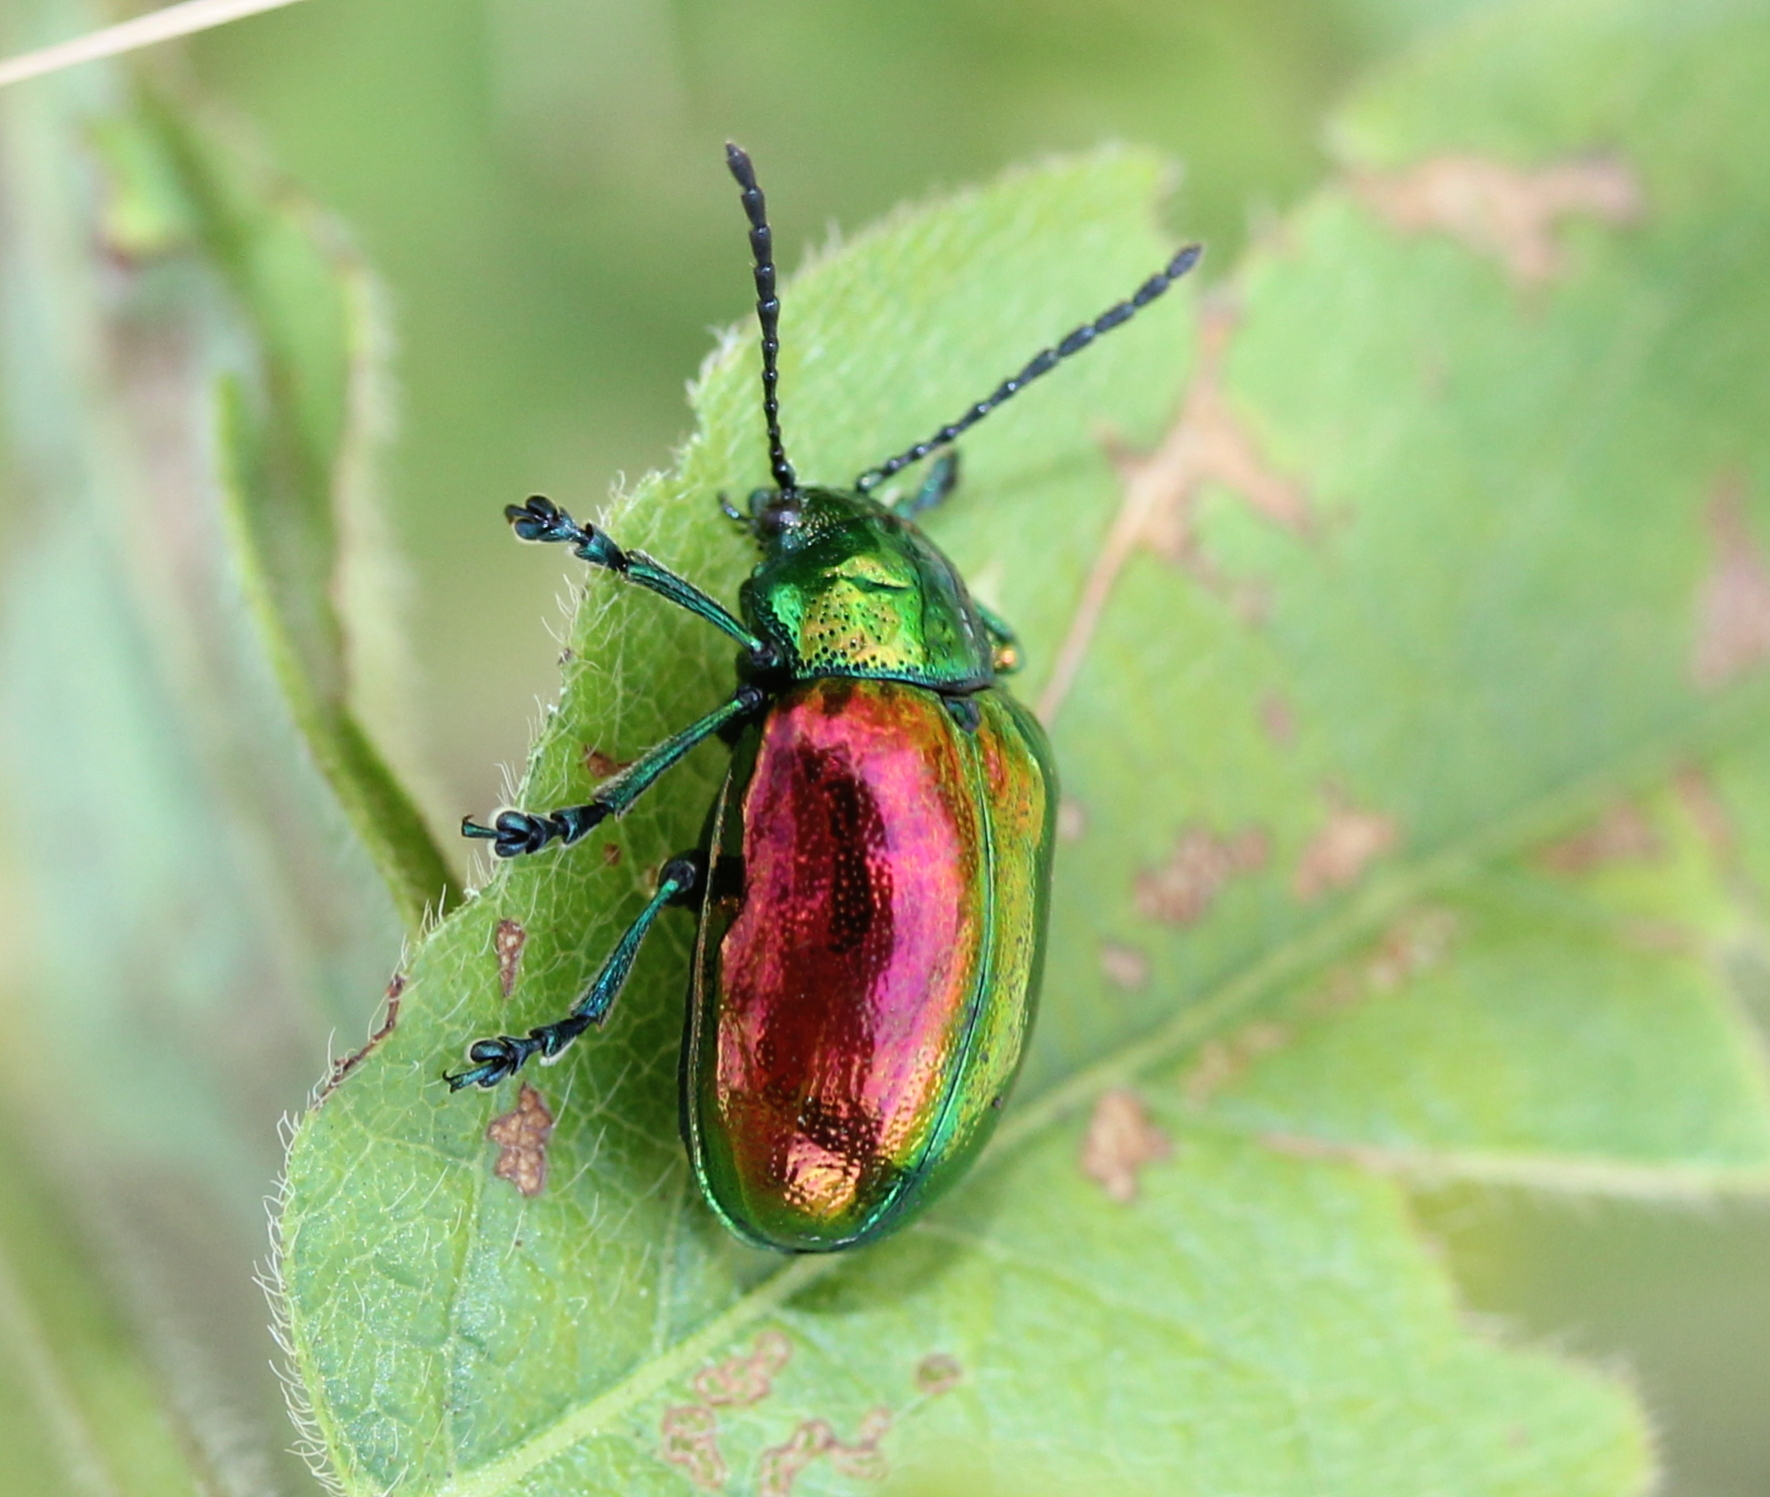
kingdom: Animalia
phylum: Arthropoda
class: Insecta
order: Coleoptera
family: Chrysomelidae
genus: Chrysochus
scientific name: Chrysochus auratus
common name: Dogbane leaf beetle
